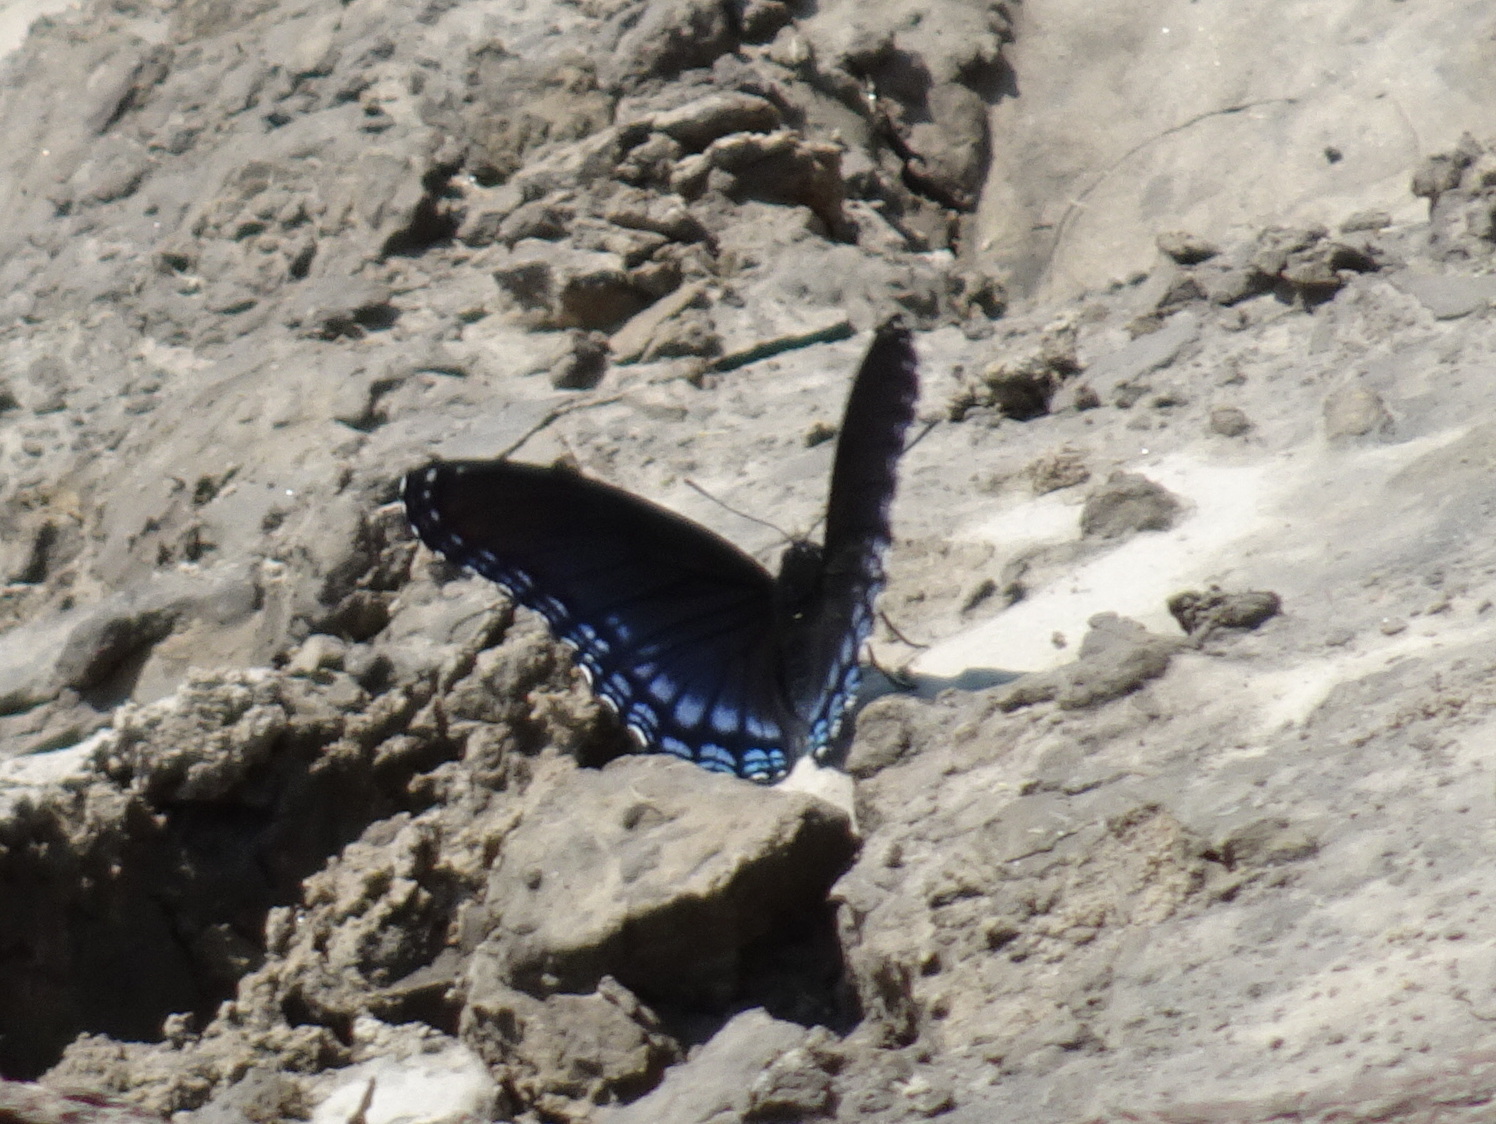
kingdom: Animalia
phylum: Arthropoda
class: Insecta
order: Lepidoptera
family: Nymphalidae
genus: Limenitis
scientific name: Limenitis astyanax
